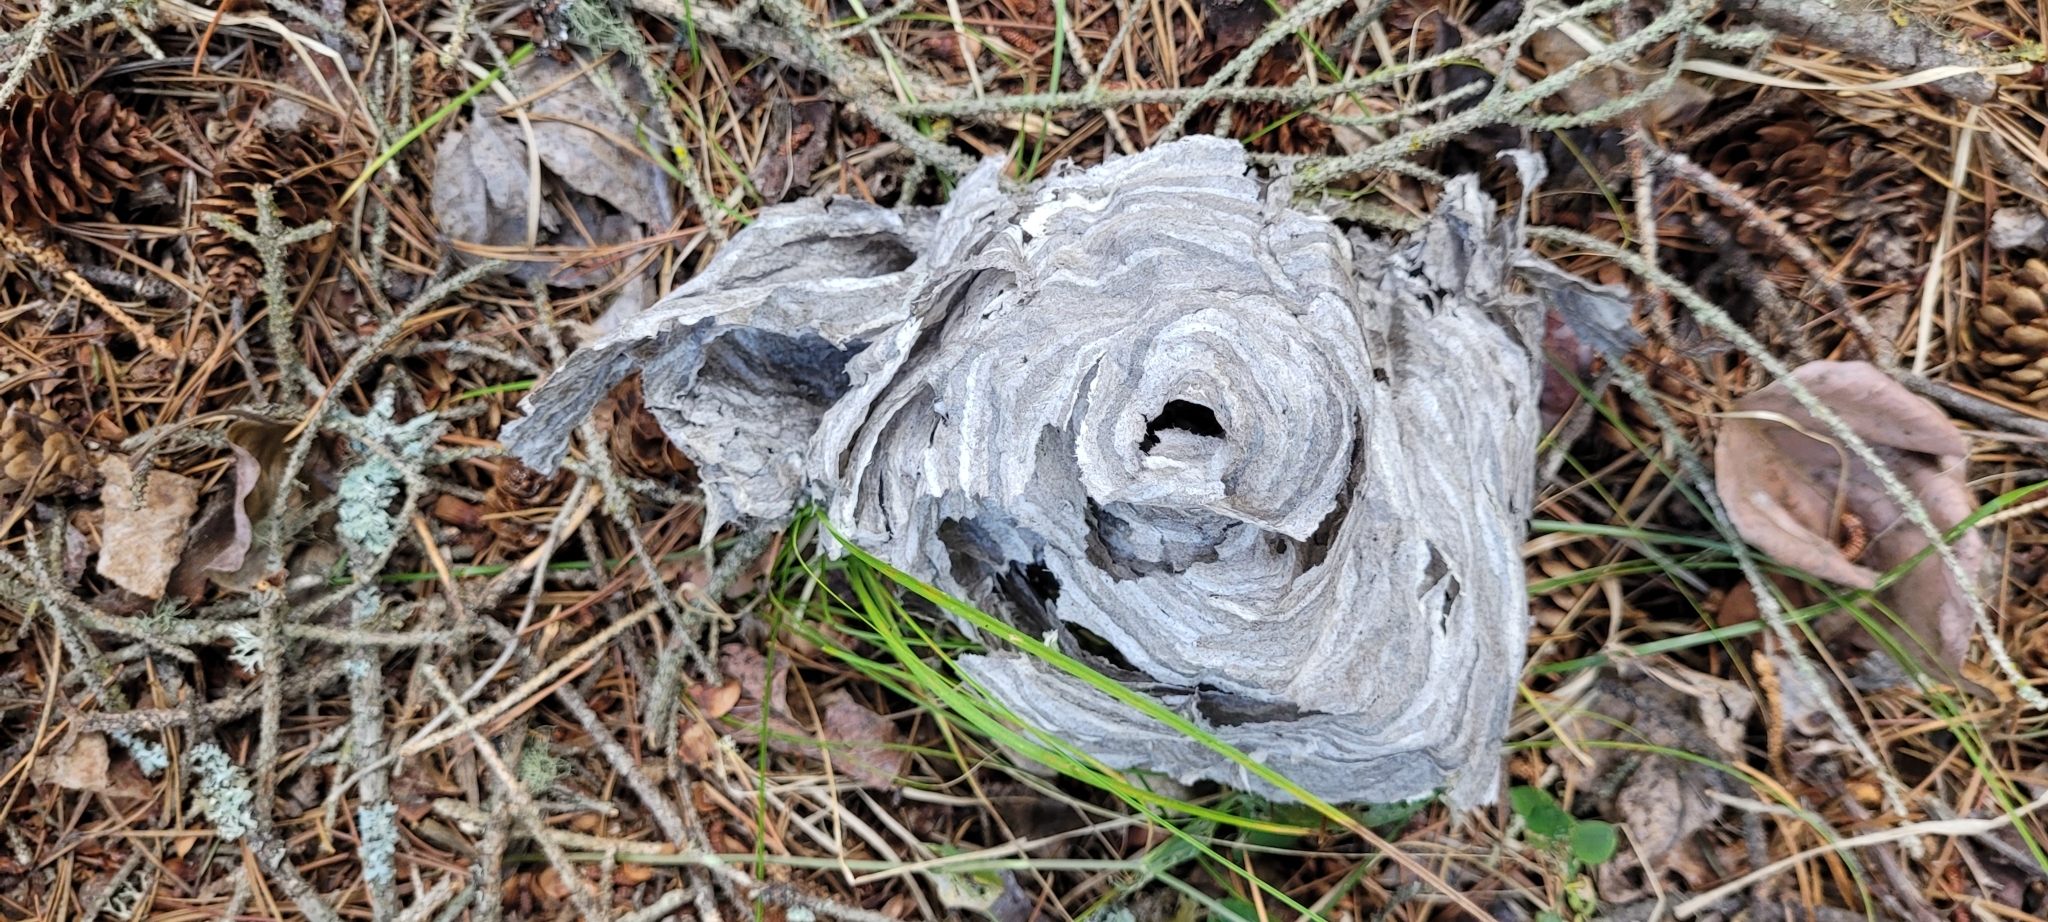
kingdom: Animalia
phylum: Arthropoda
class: Insecta
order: Hymenoptera
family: Vespidae
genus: Dolichovespula
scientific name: Dolichovespula arenaria
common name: Aerial yellowjacket
